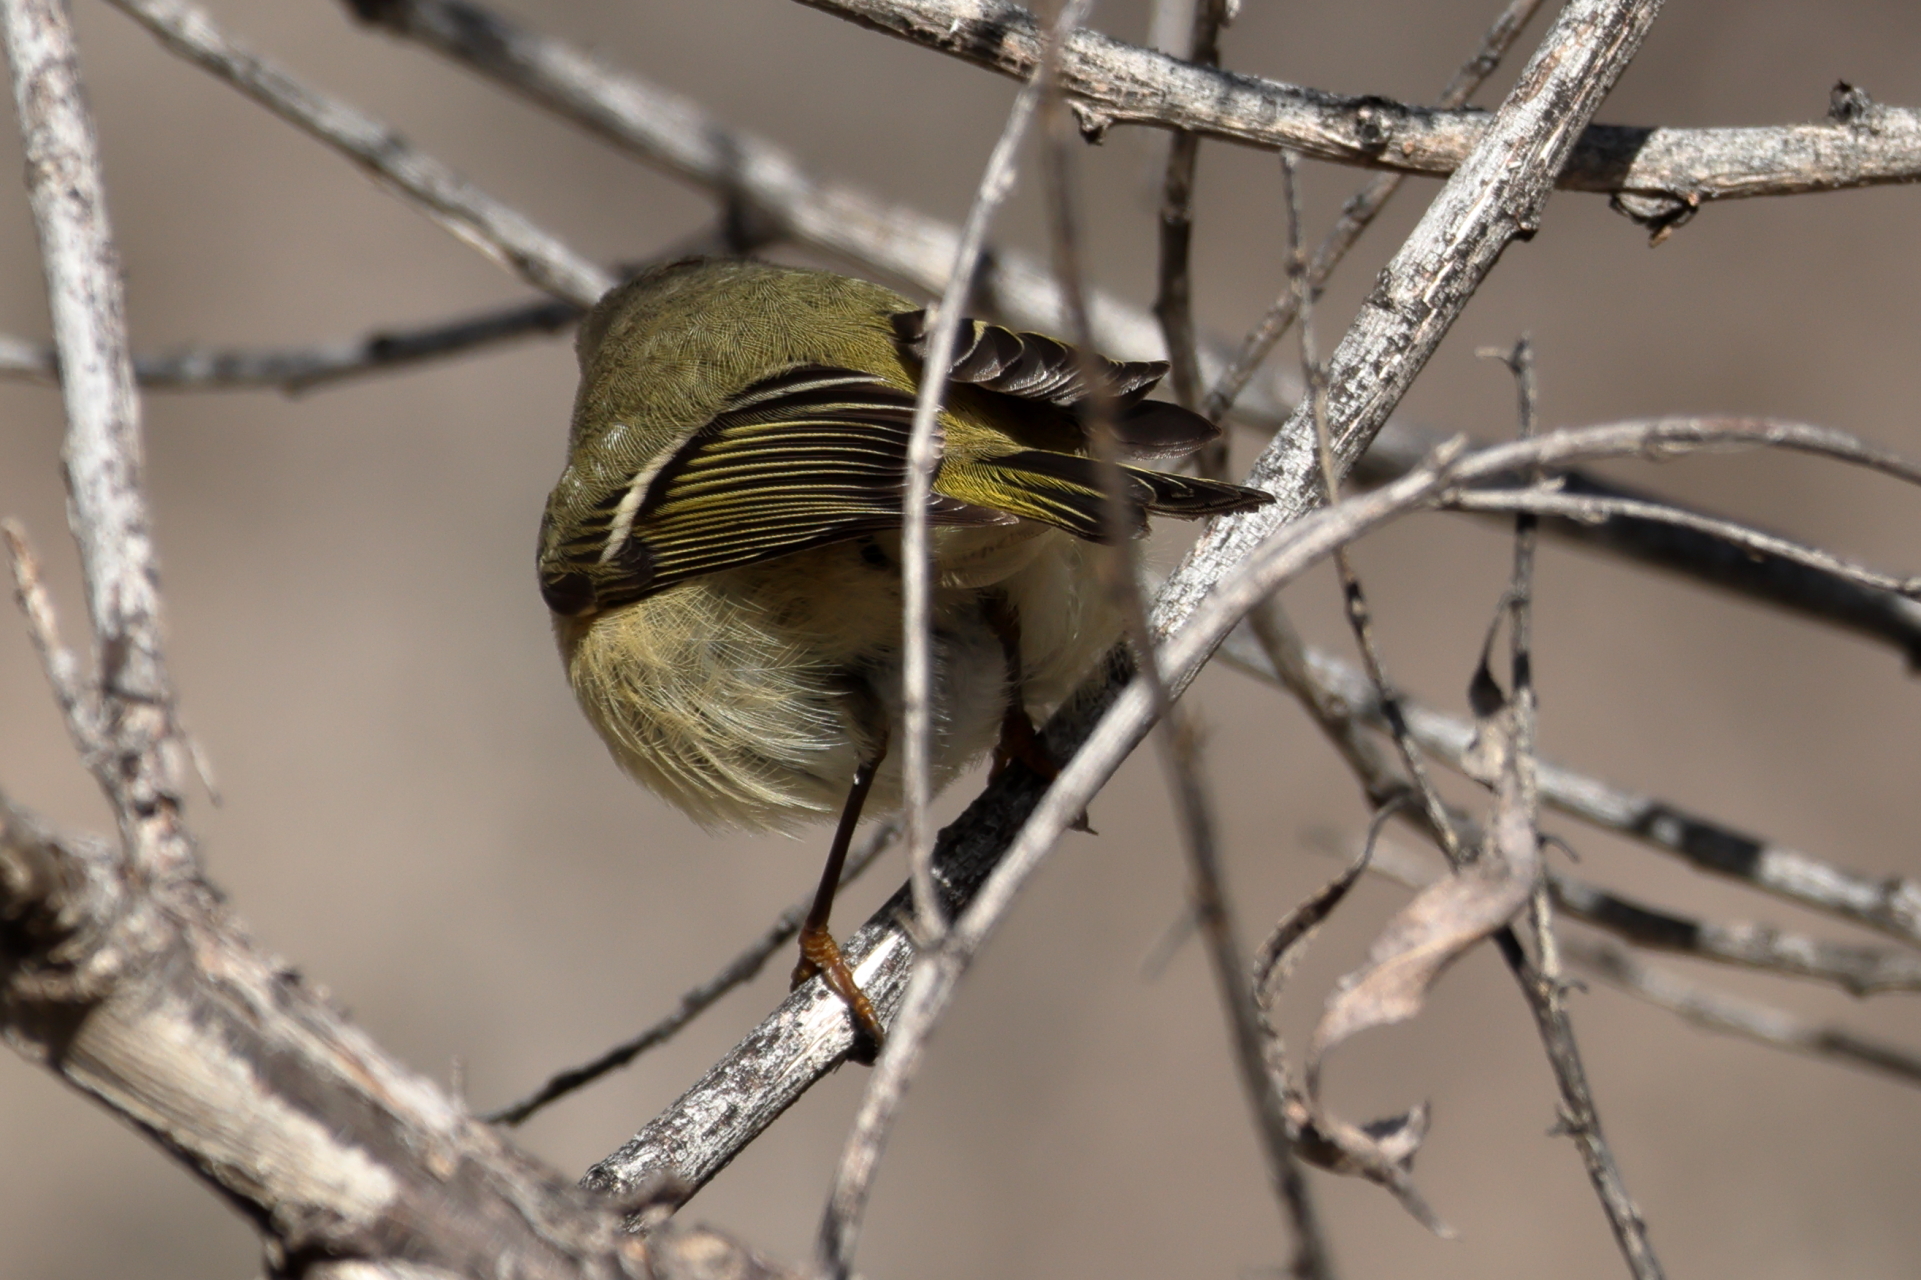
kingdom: Animalia
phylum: Chordata
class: Aves
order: Passeriformes
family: Regulidae
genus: Regulus
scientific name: Regulus calendula
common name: Ruby-crowned kinglet
